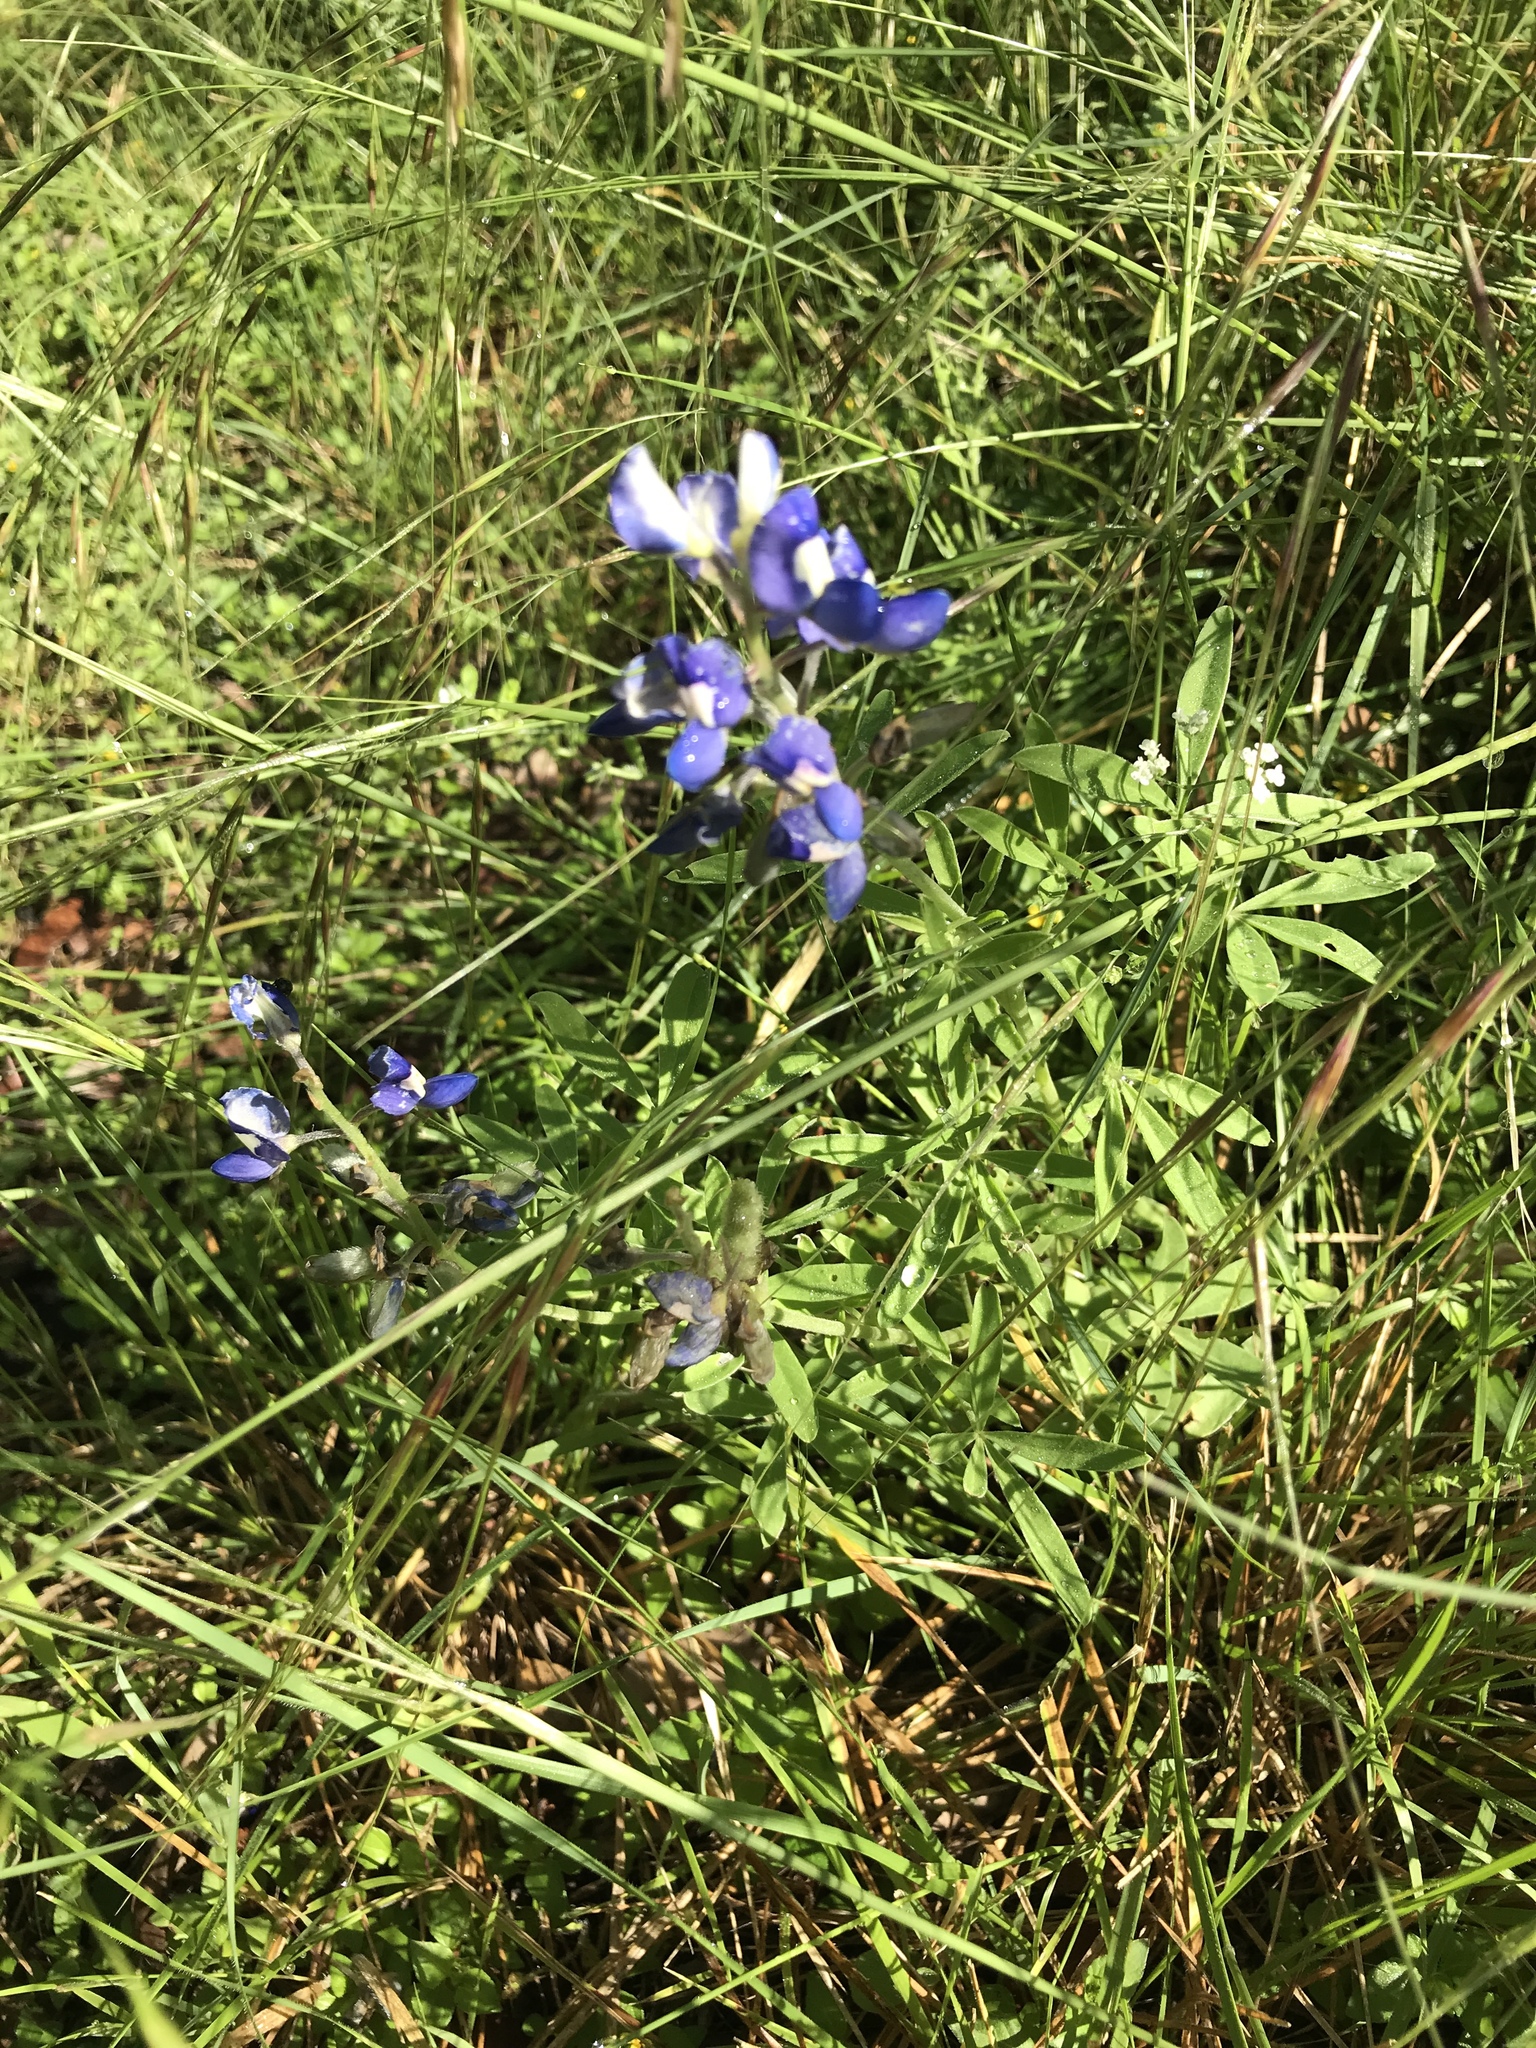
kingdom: Plantae
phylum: Tracheophyta
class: Magnoliopsida
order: Fabales
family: Fabaceae
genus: Lupinus
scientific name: Lupinus texensis
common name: Texas bluebonnet
